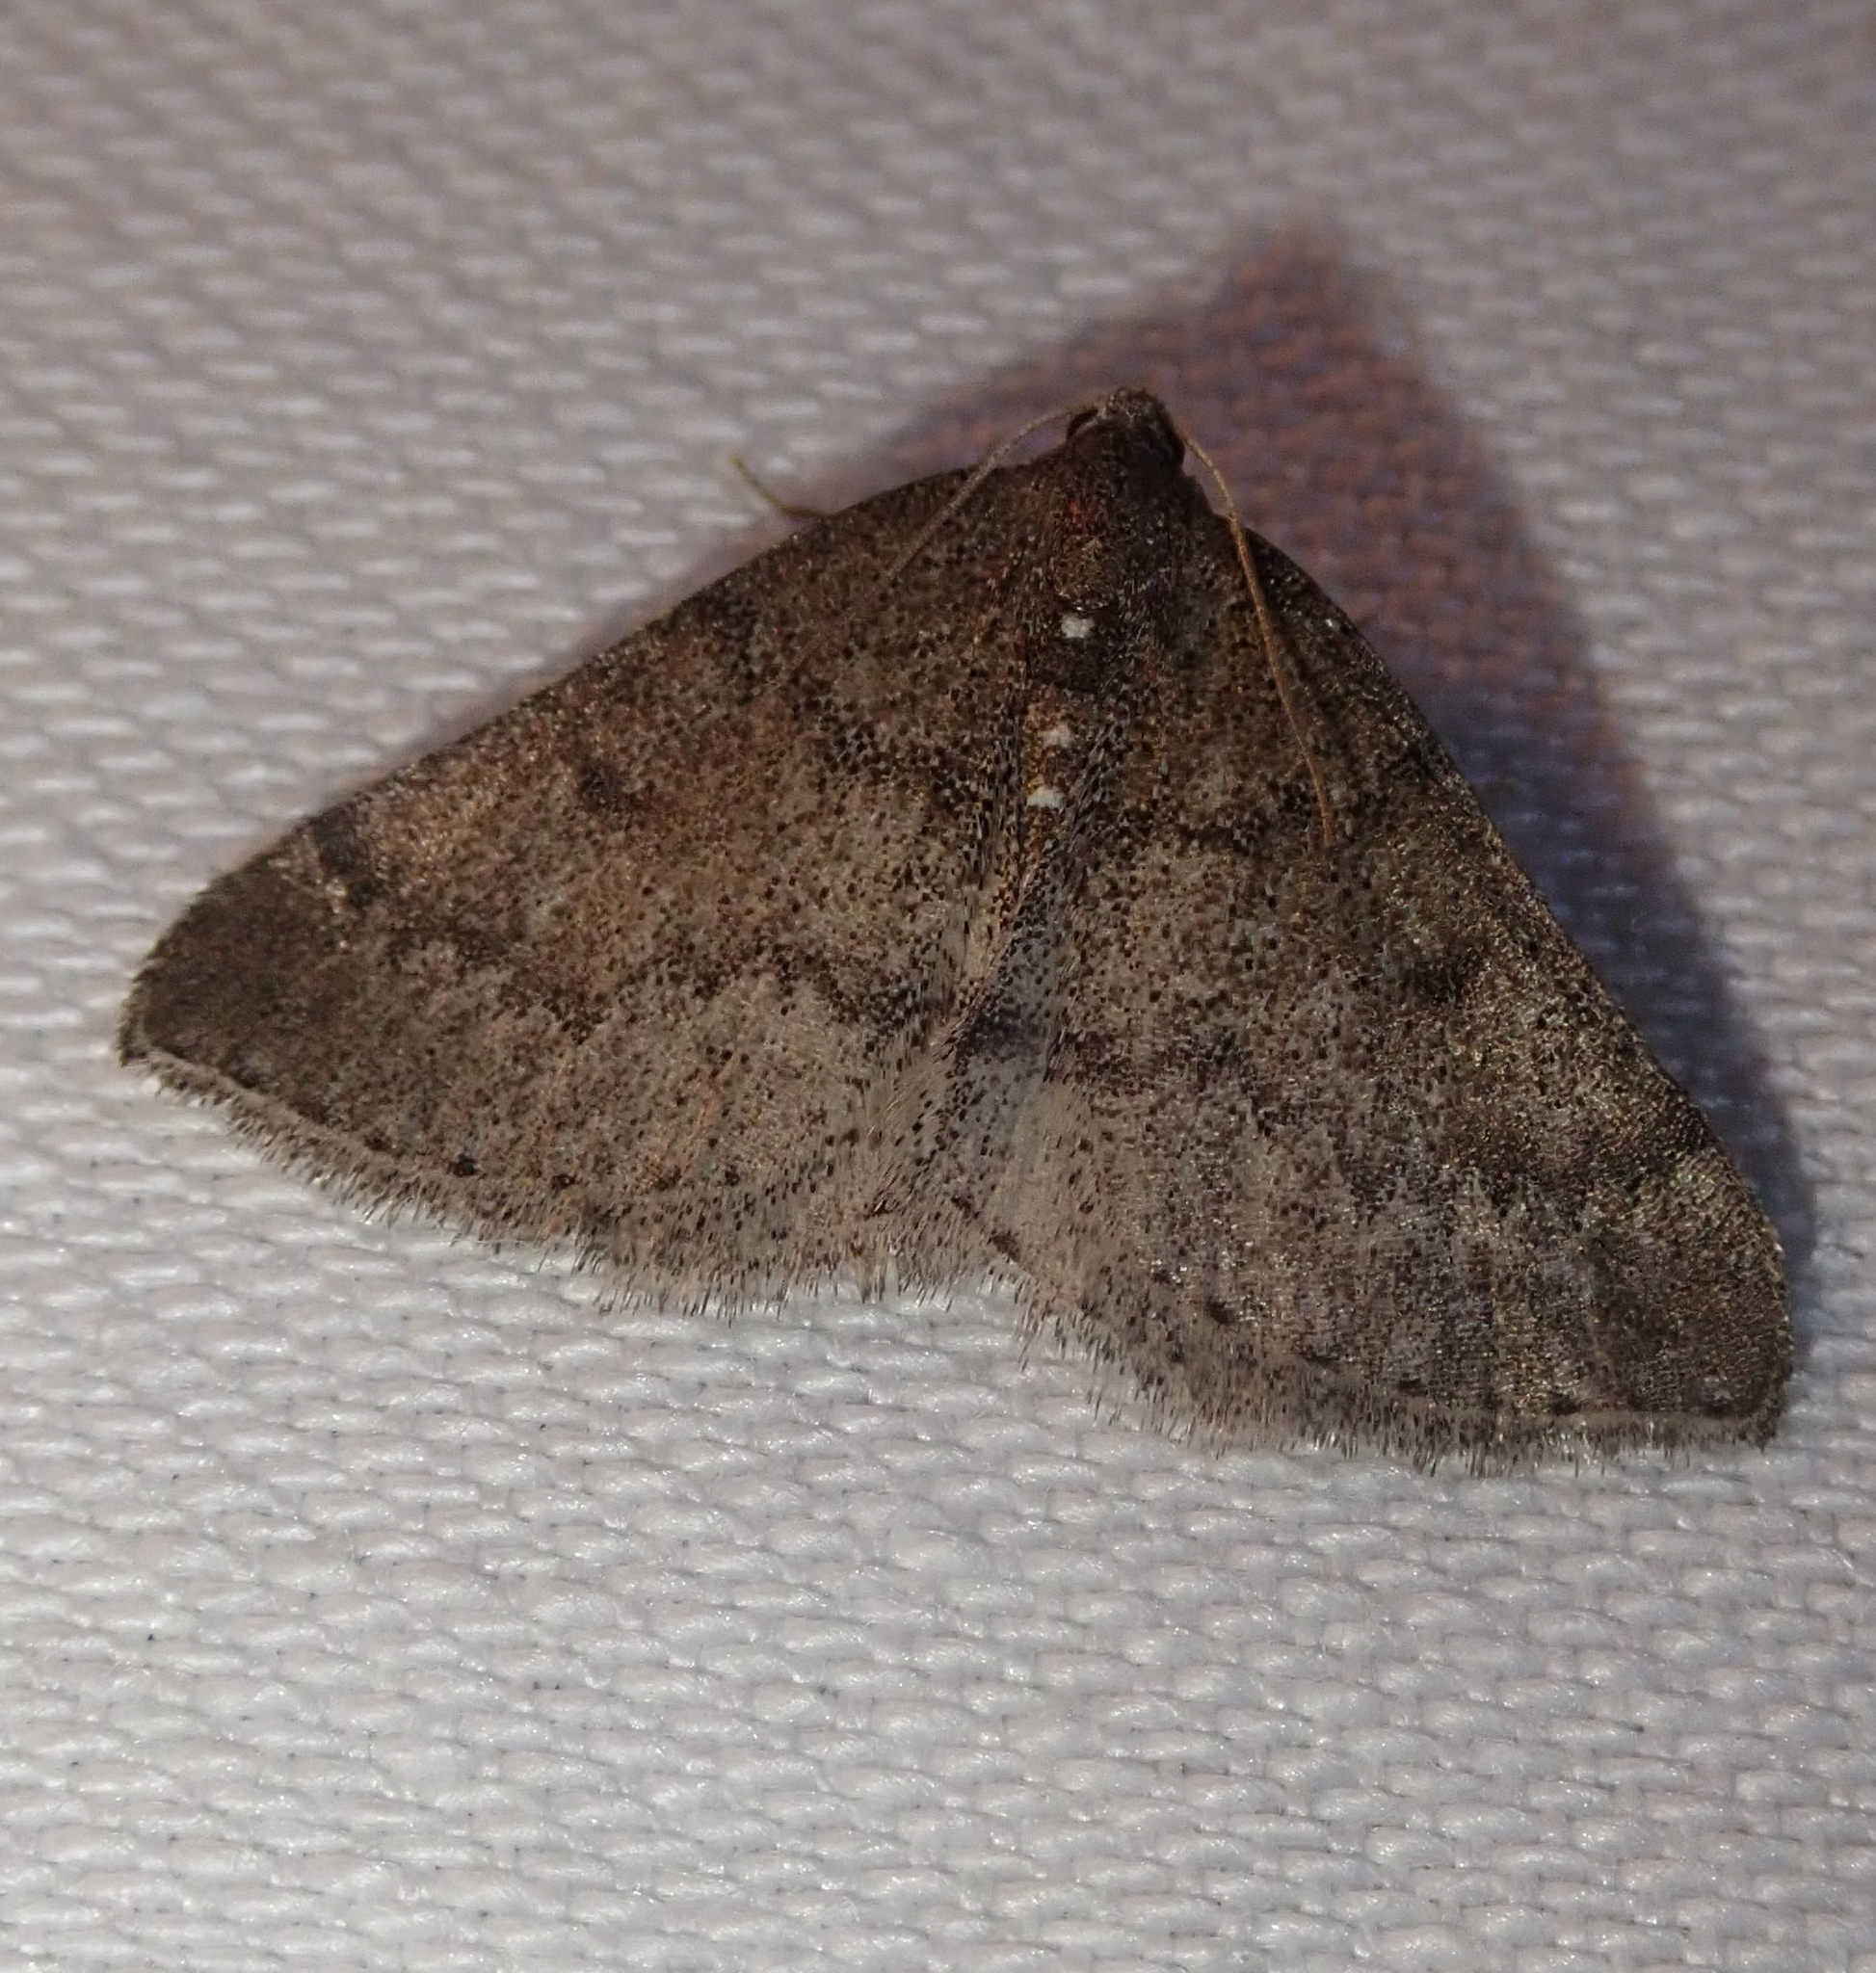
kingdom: Animalia
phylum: Arthropoda
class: Insecta
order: Lepidoptera
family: Geometridae
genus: Aleucis
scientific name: Aleucis distinctata
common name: Sloe carpet
